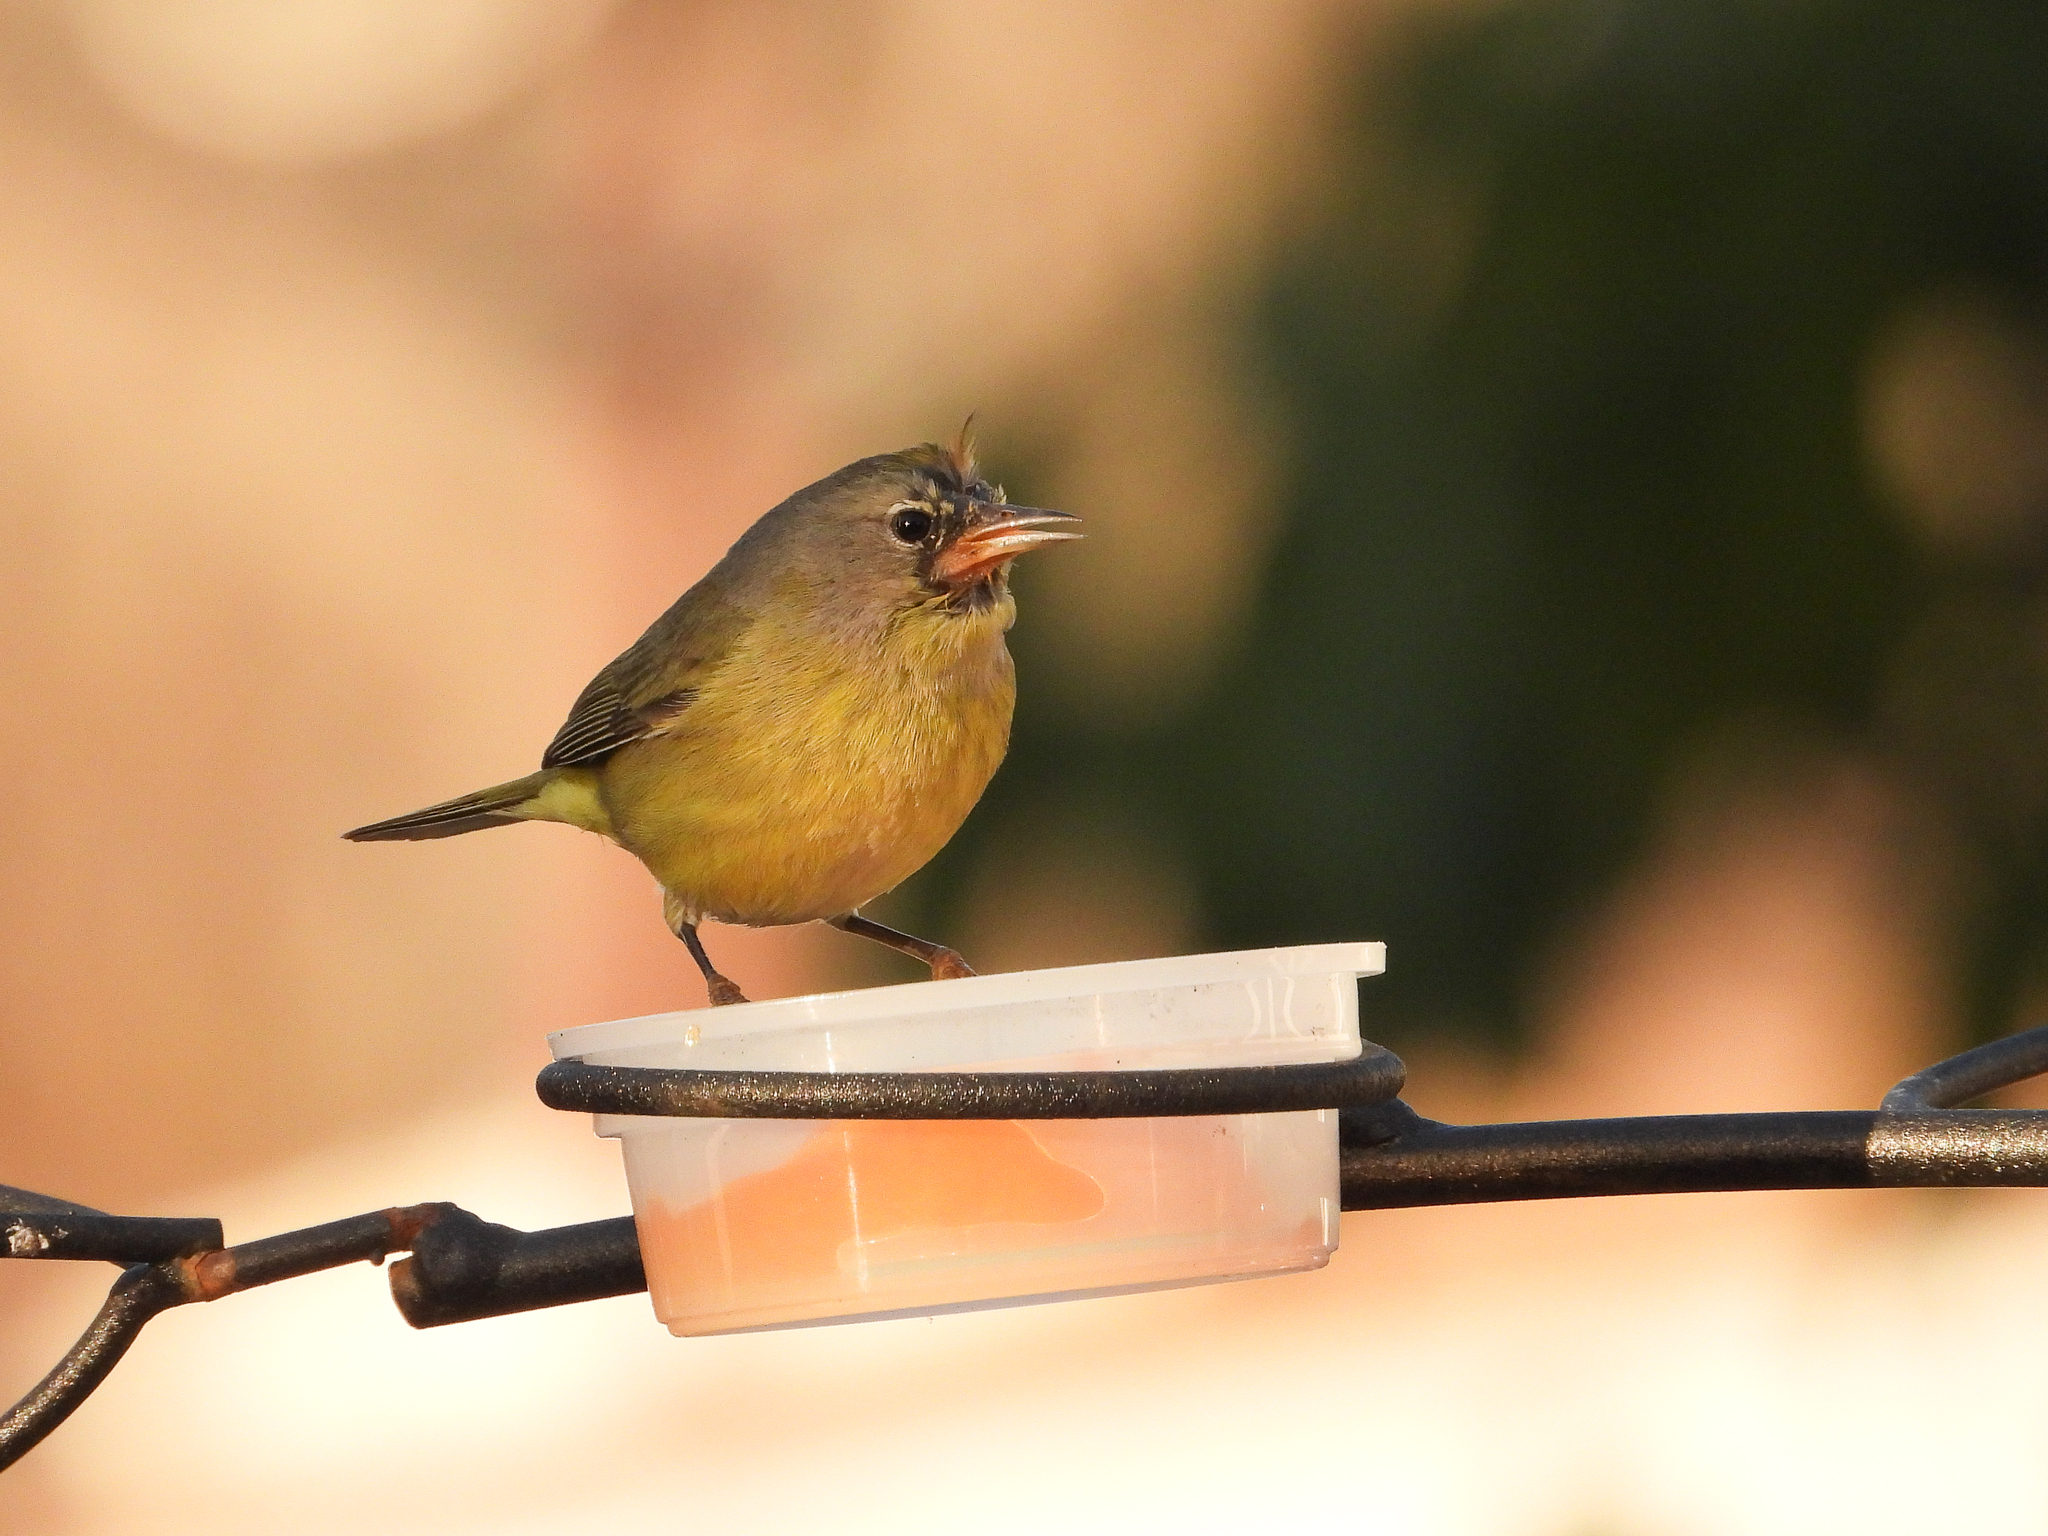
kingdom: Animalia
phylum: Chordata
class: Aves
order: Passeriformes
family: Parulidae
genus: Leiothlypis
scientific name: Leiothlypis celata
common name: Orange-crowned warbler
